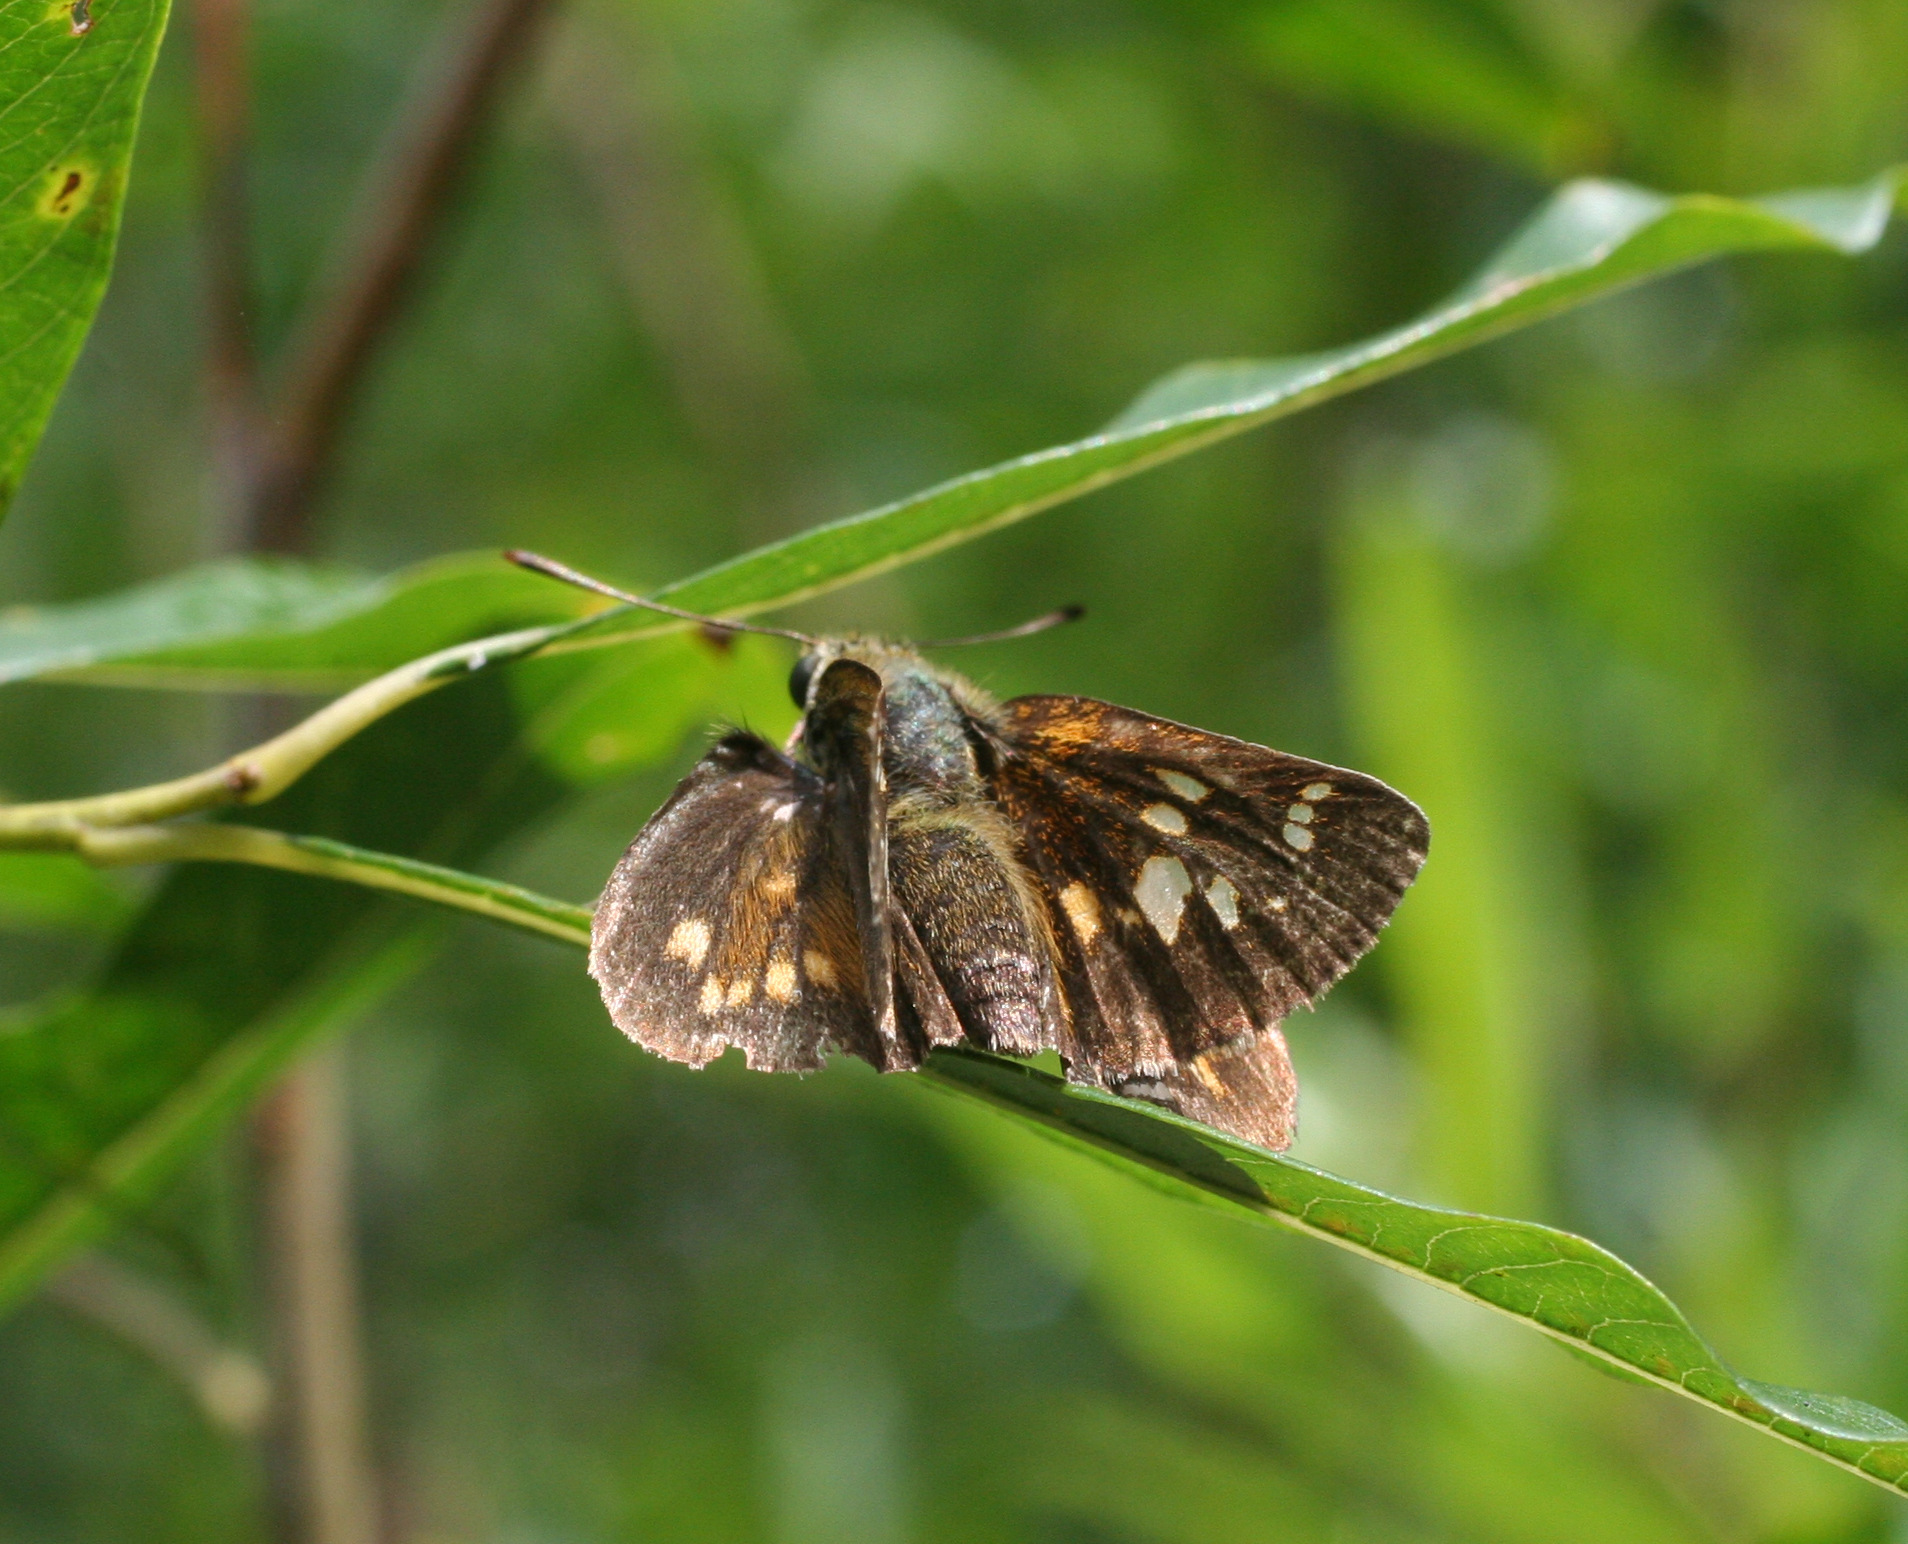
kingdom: Animalia
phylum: Arthropoda
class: Insecta
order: Lepidoptera
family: Hesperiidae
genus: Ochlodes
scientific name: Ochlodes subhyalina
